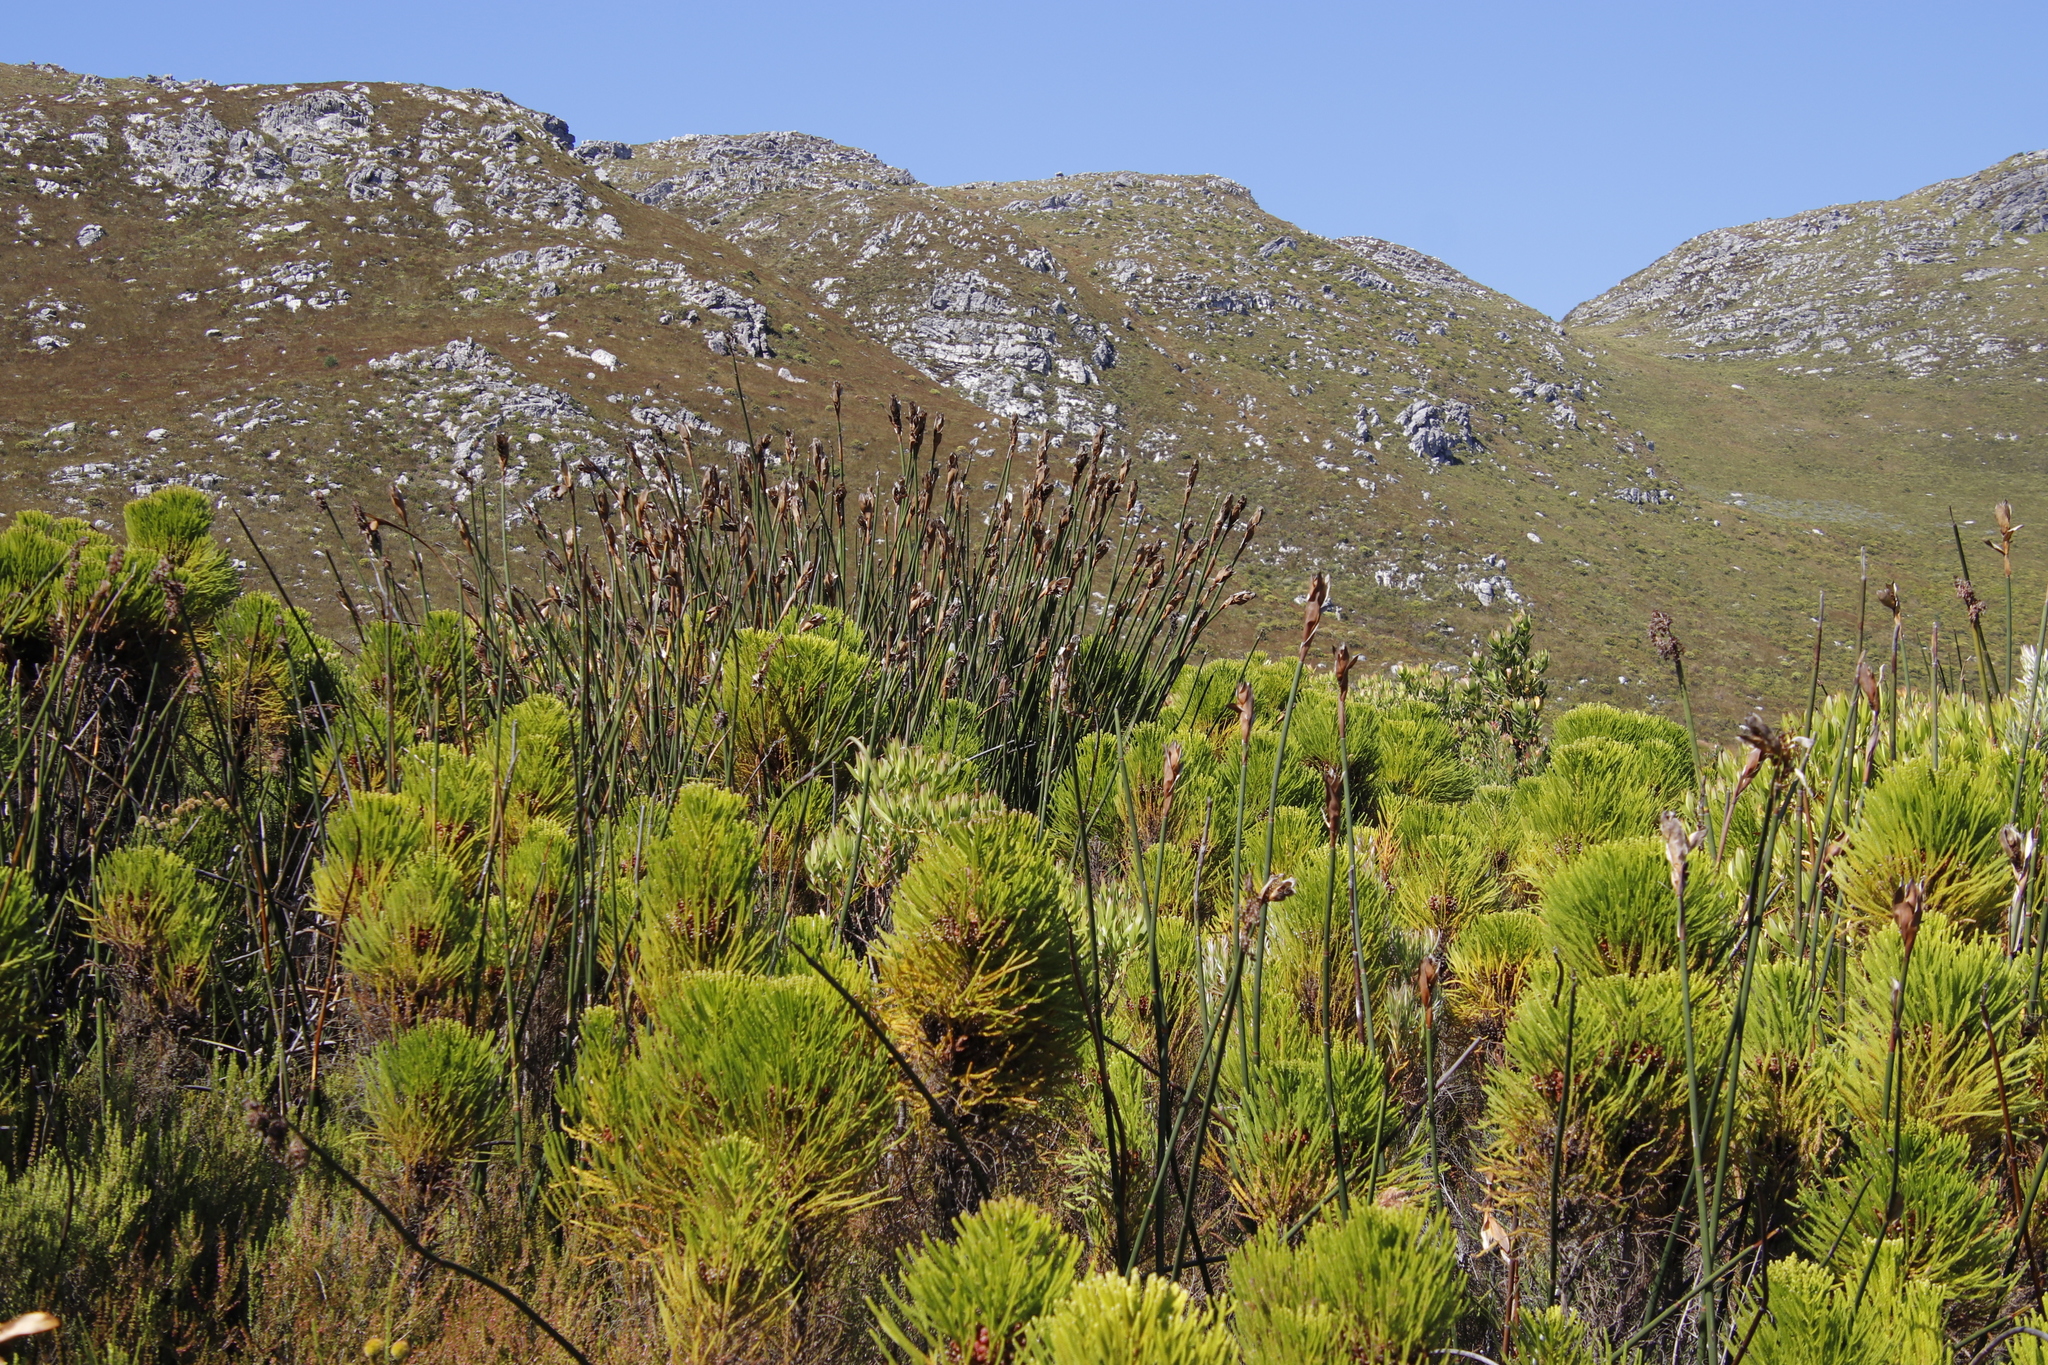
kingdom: Plantae
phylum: Tracheophyta
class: Liliopsida
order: Poales
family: Restionaceae
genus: Elegia
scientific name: Elegia mucronata
